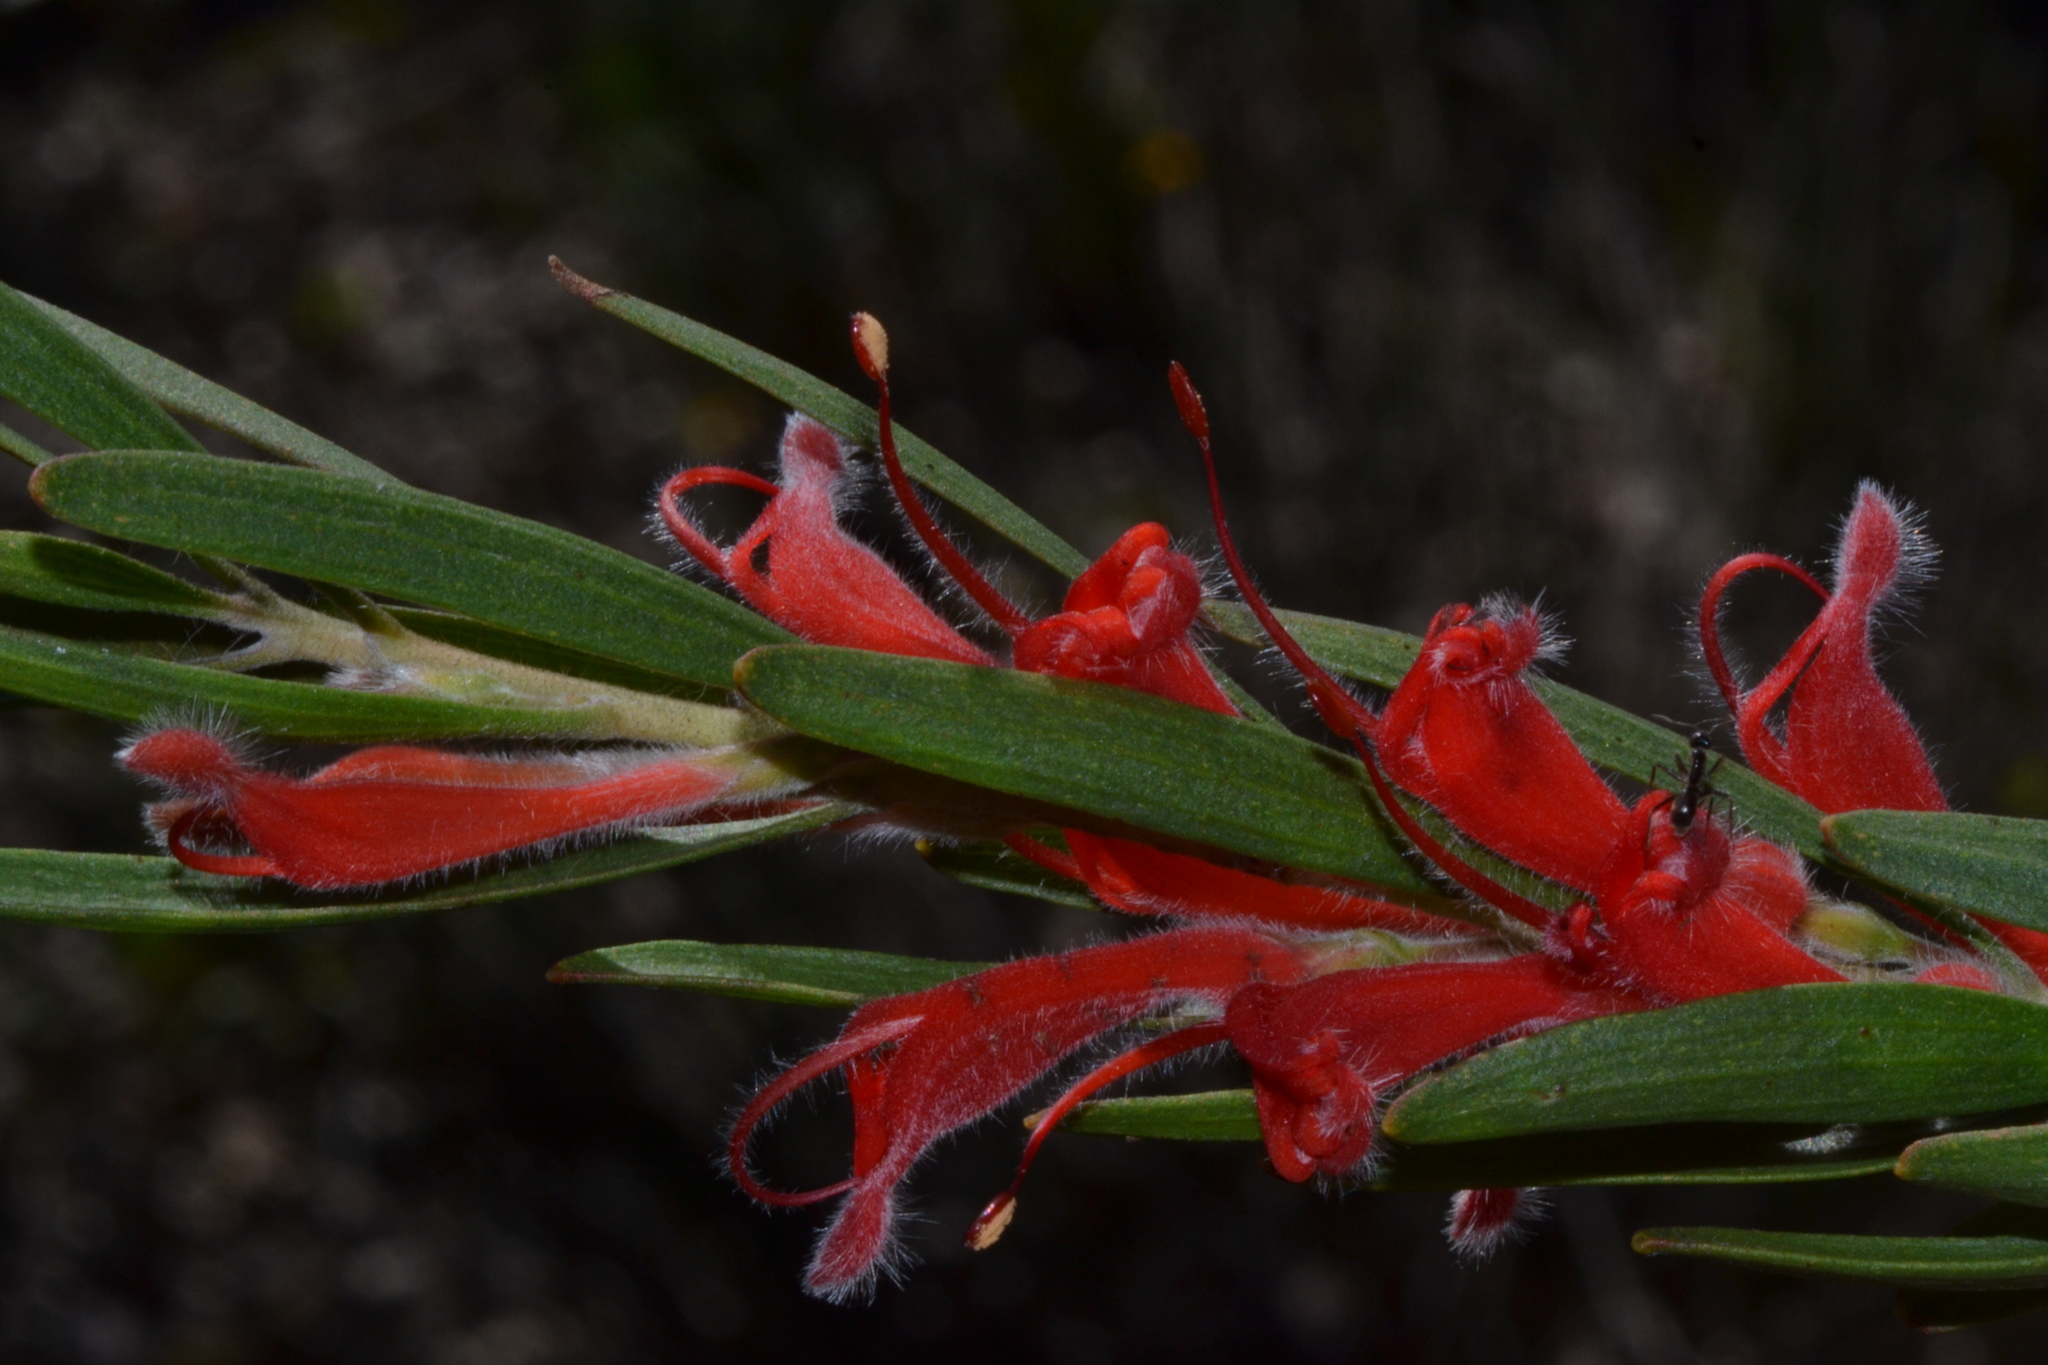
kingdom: Plantae
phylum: Tracheophyta
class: Magnoliopsida
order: Proteales
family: Proteaceae
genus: Adenanthos
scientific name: Adenanthos barbiger
